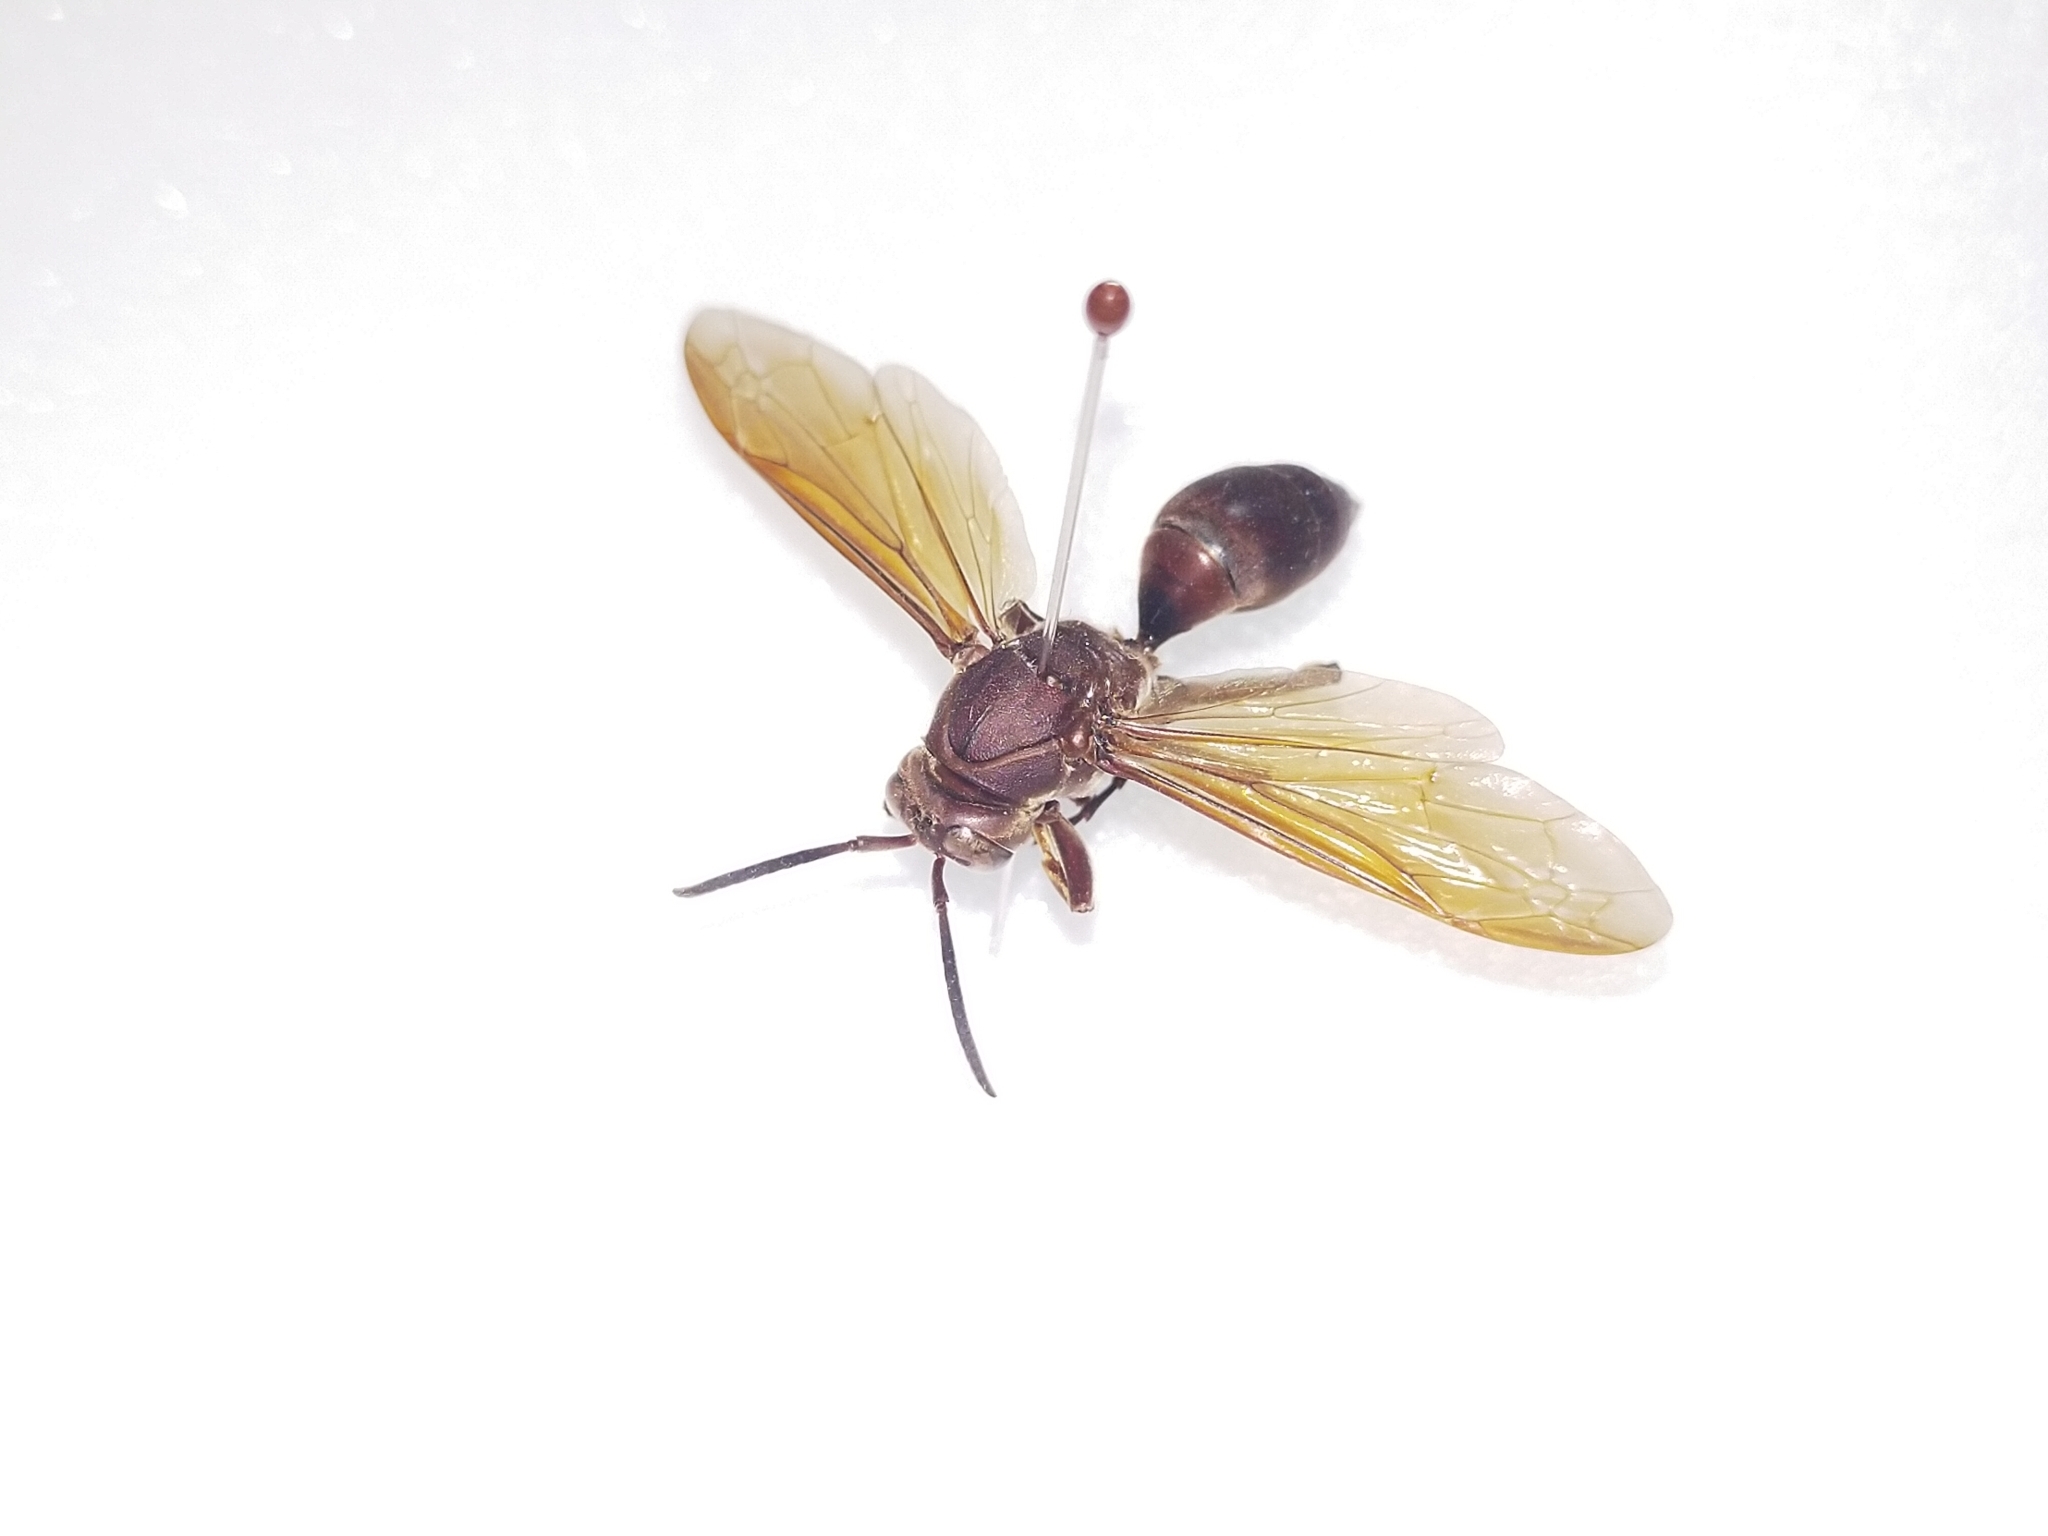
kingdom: Animalia
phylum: Arthropoda
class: Insecta
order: Hymenoptera
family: Eumenidae
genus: Polistes
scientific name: Polistes tenebricosus
